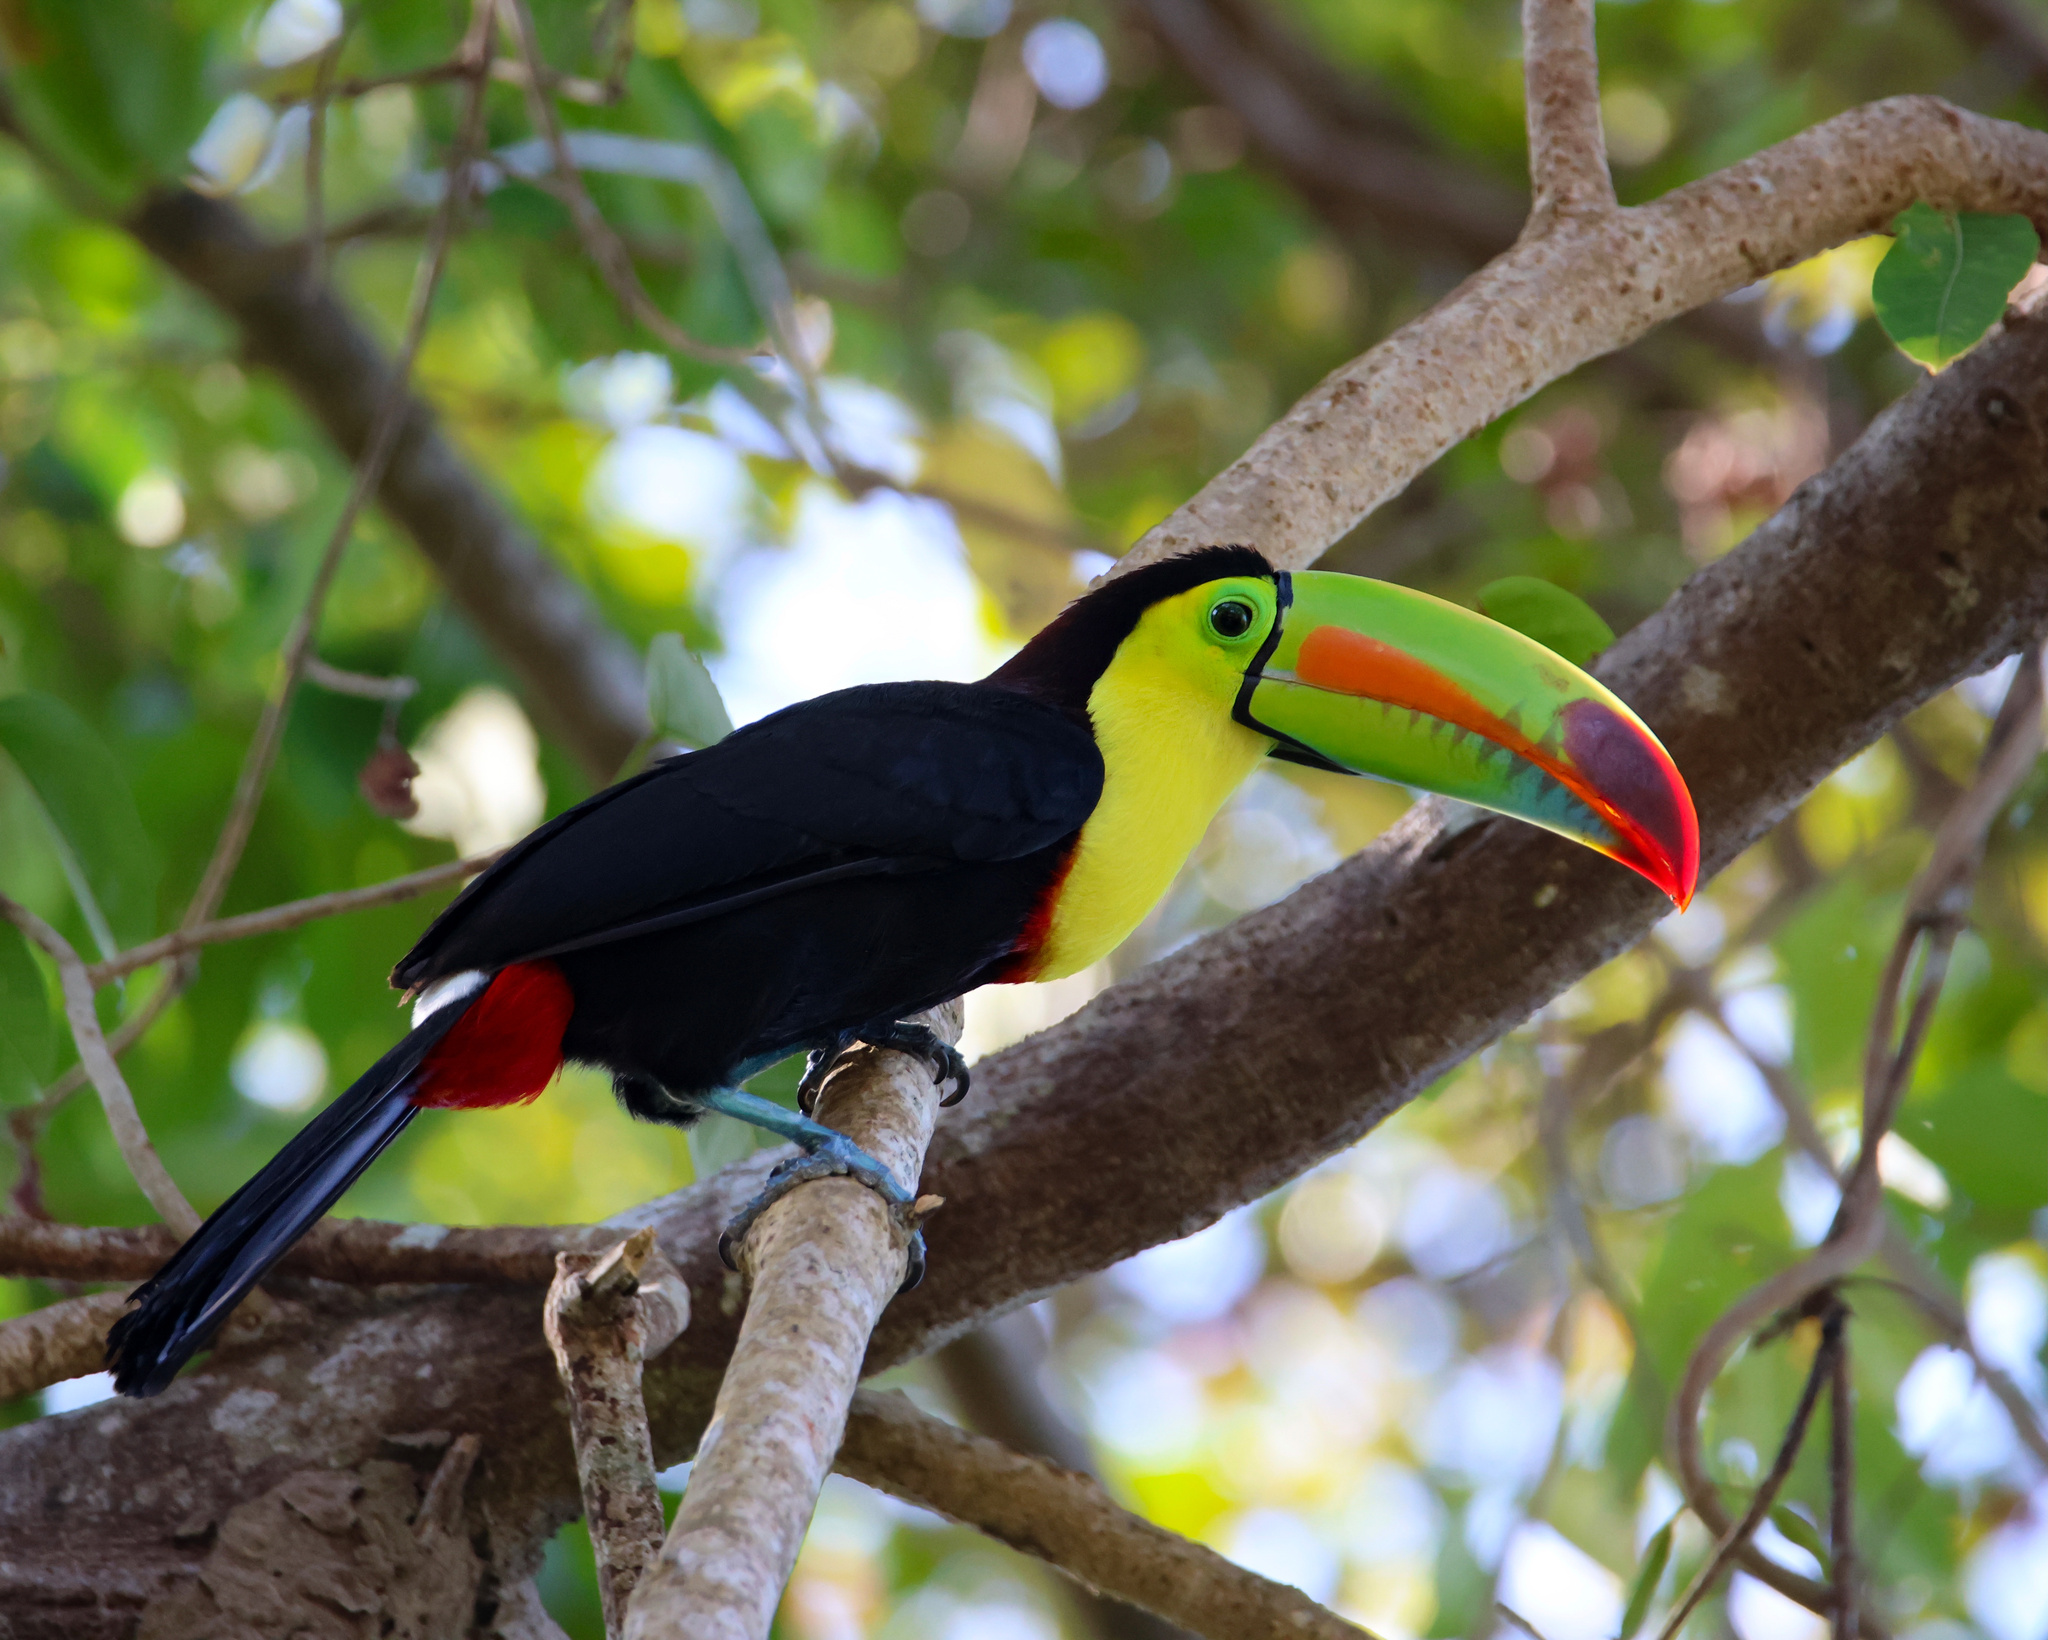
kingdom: Animalia
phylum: Chordata
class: Aves
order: Piciformes
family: Ramphastidae
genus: Ramphastos
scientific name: Ramphastos sulfuratus
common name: Keel-billed toucan
